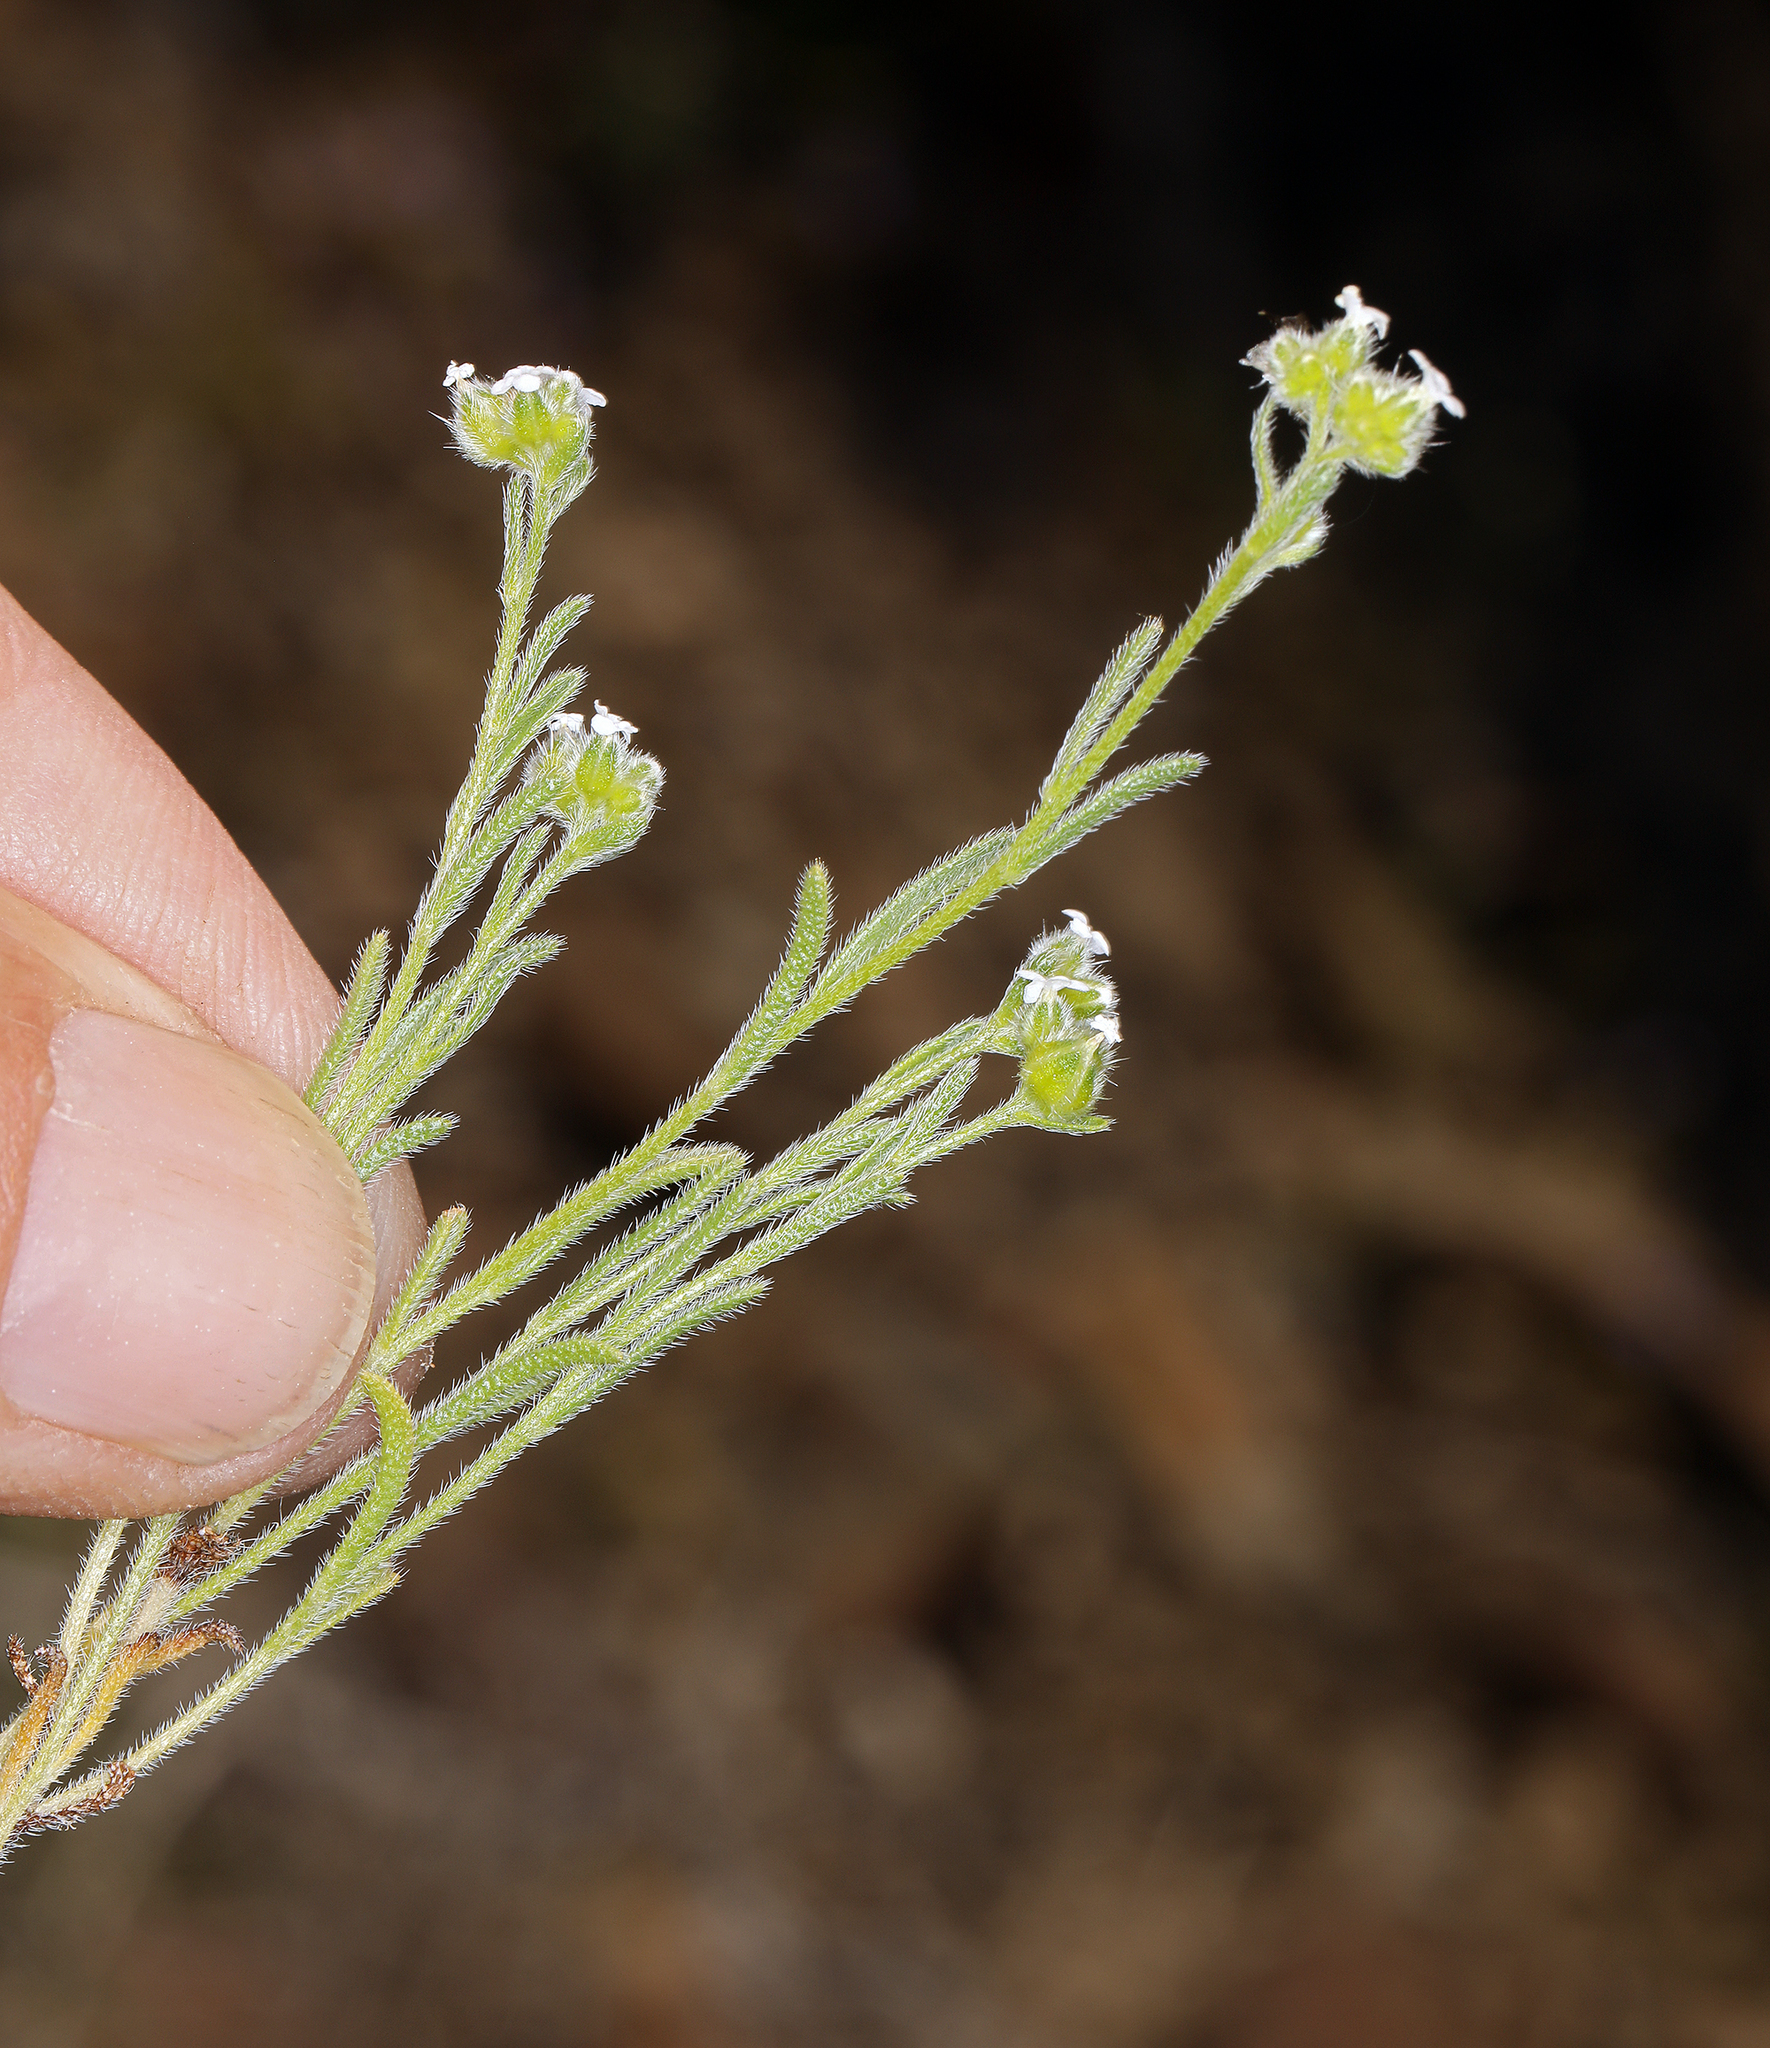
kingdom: Plantae
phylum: Tracheophyta
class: Magnoliopsida
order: Boraginales
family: Boraginaceae
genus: Cryptantha
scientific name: Cryptantha pterocarya
